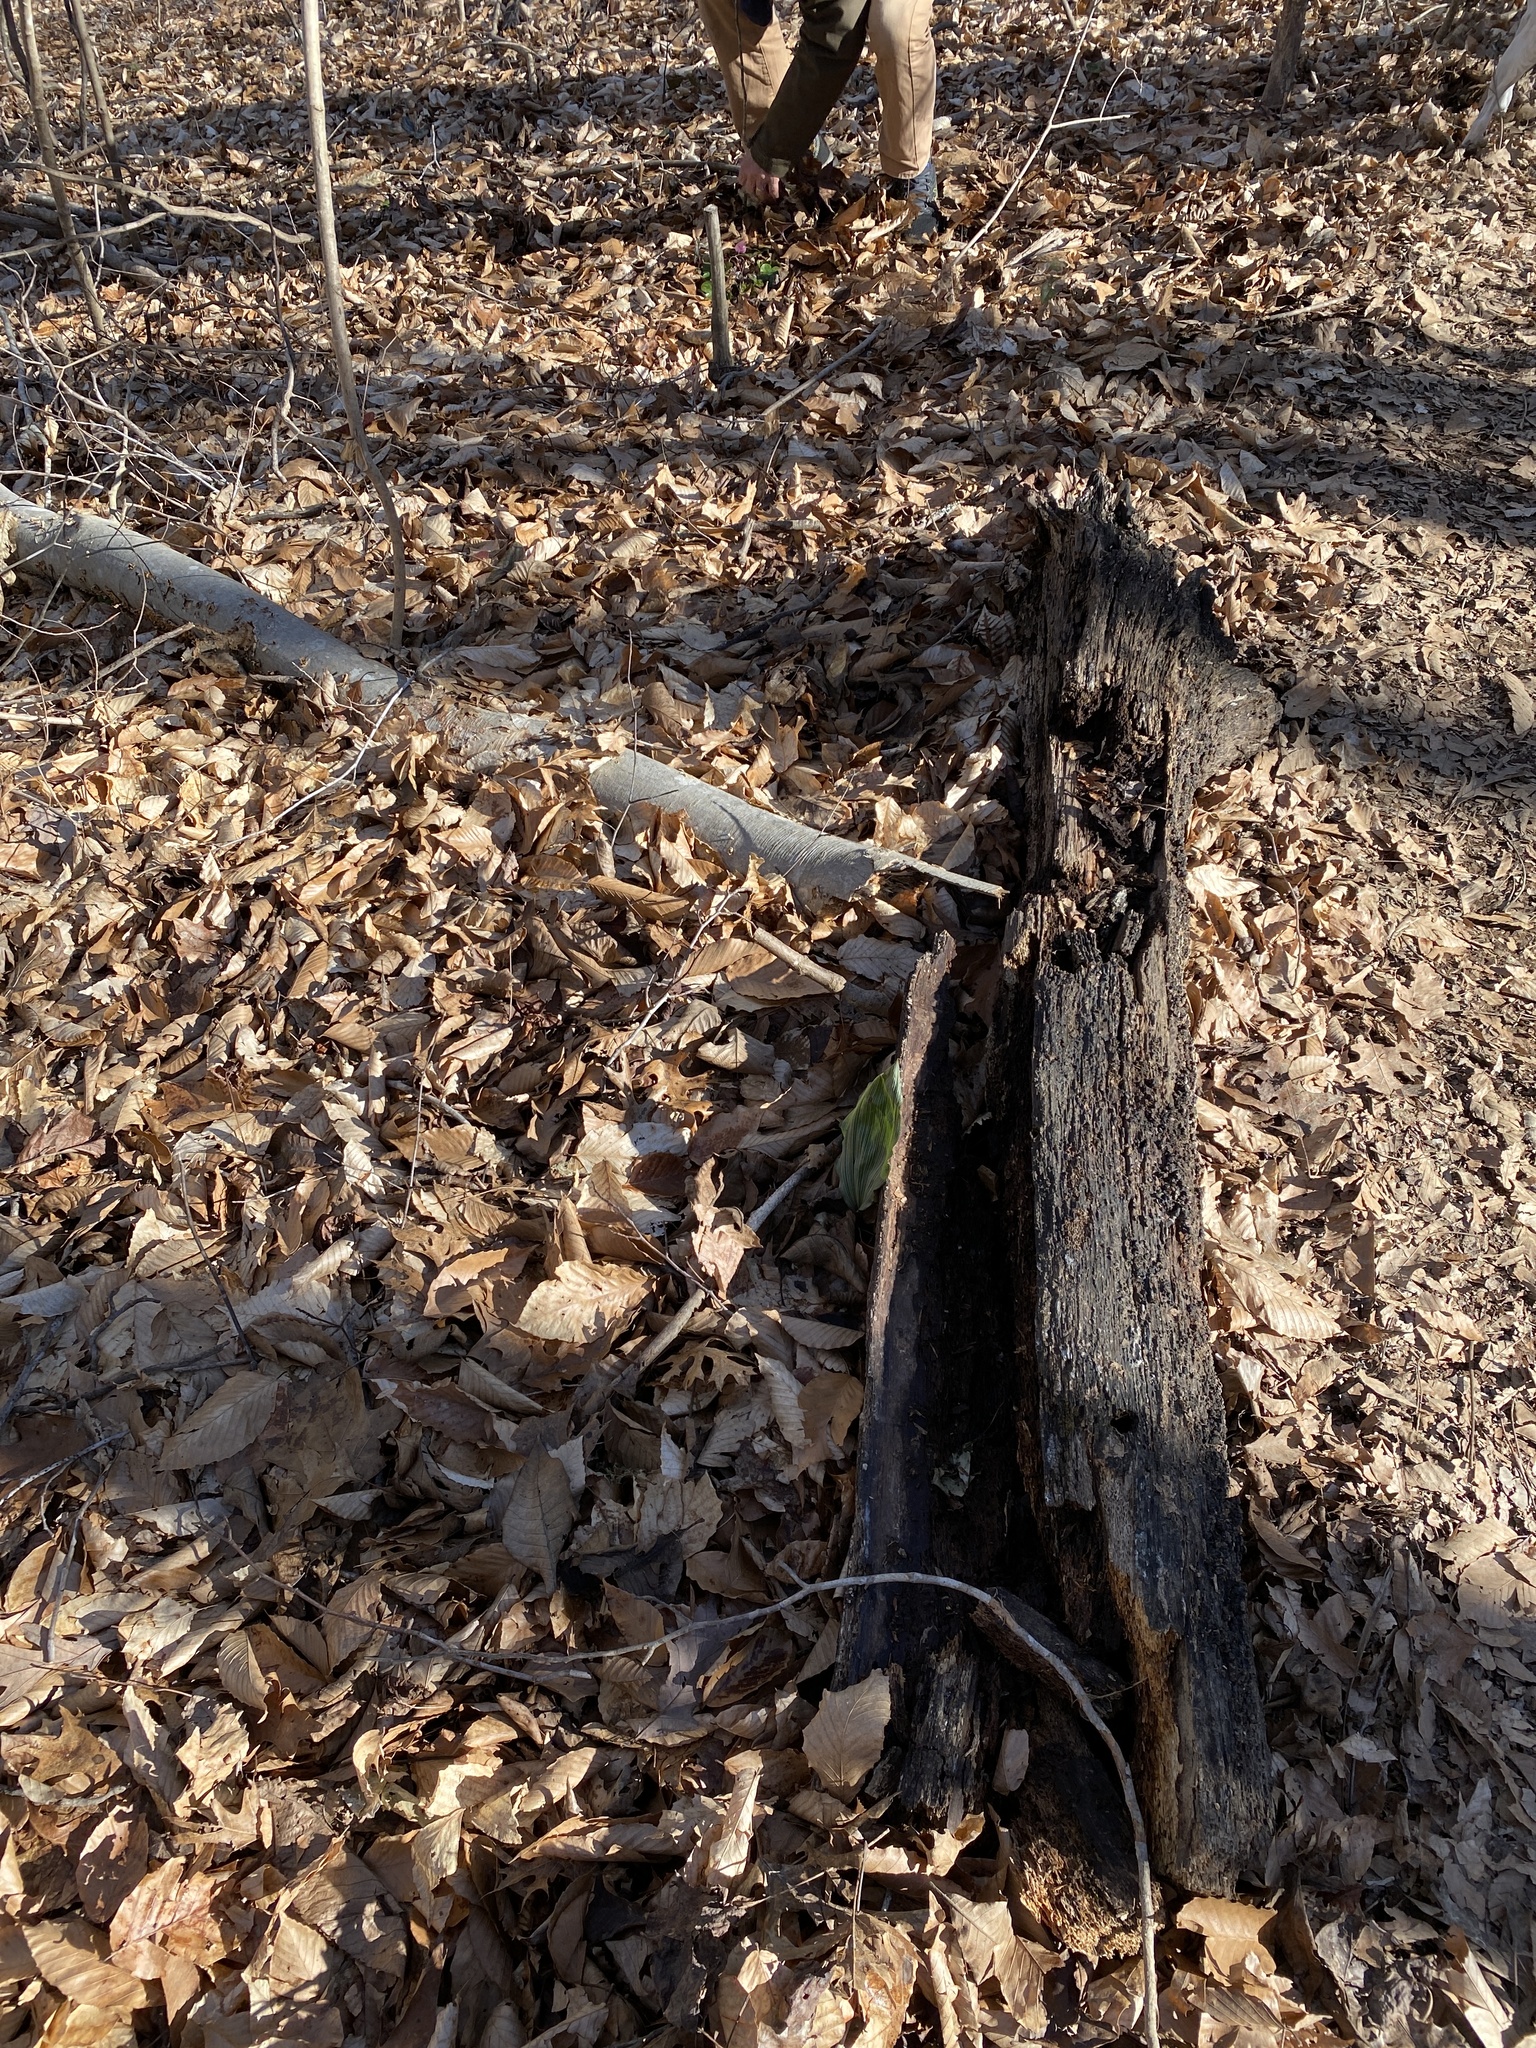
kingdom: Plantae
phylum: Tracheophyta
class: Liliopsida
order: Asparagales
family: Orchidaceae
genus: Aplectrum
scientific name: Aplectrum hyemale
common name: Adam-and-eve
